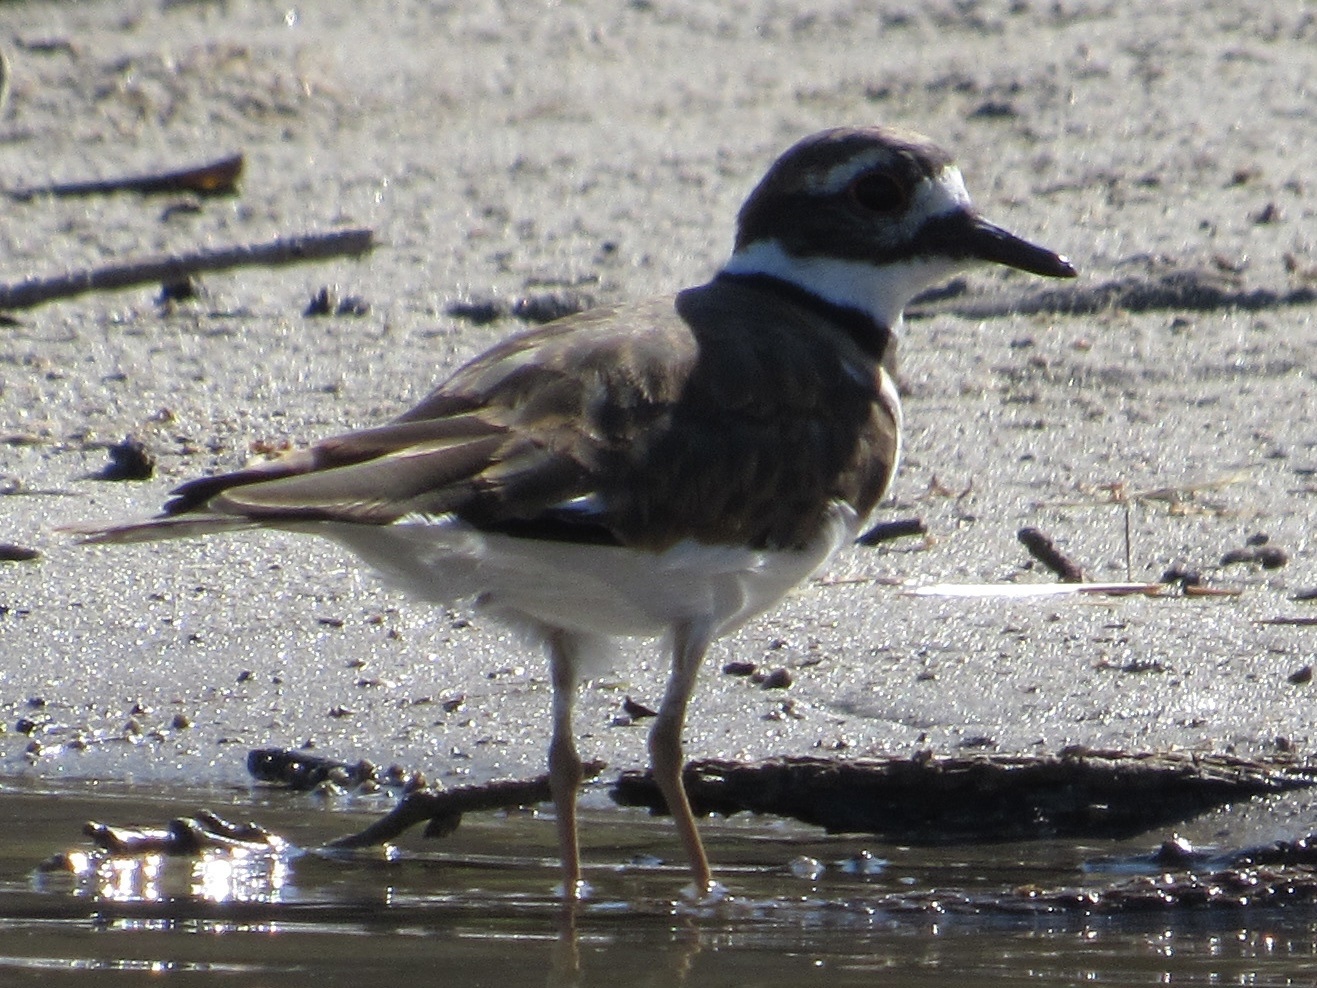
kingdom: Animalia
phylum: Chordata
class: Aves
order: Charadriiformes
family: Charadriidae
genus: Charadrius
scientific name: Charadrius vociferus
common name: Killdeer
